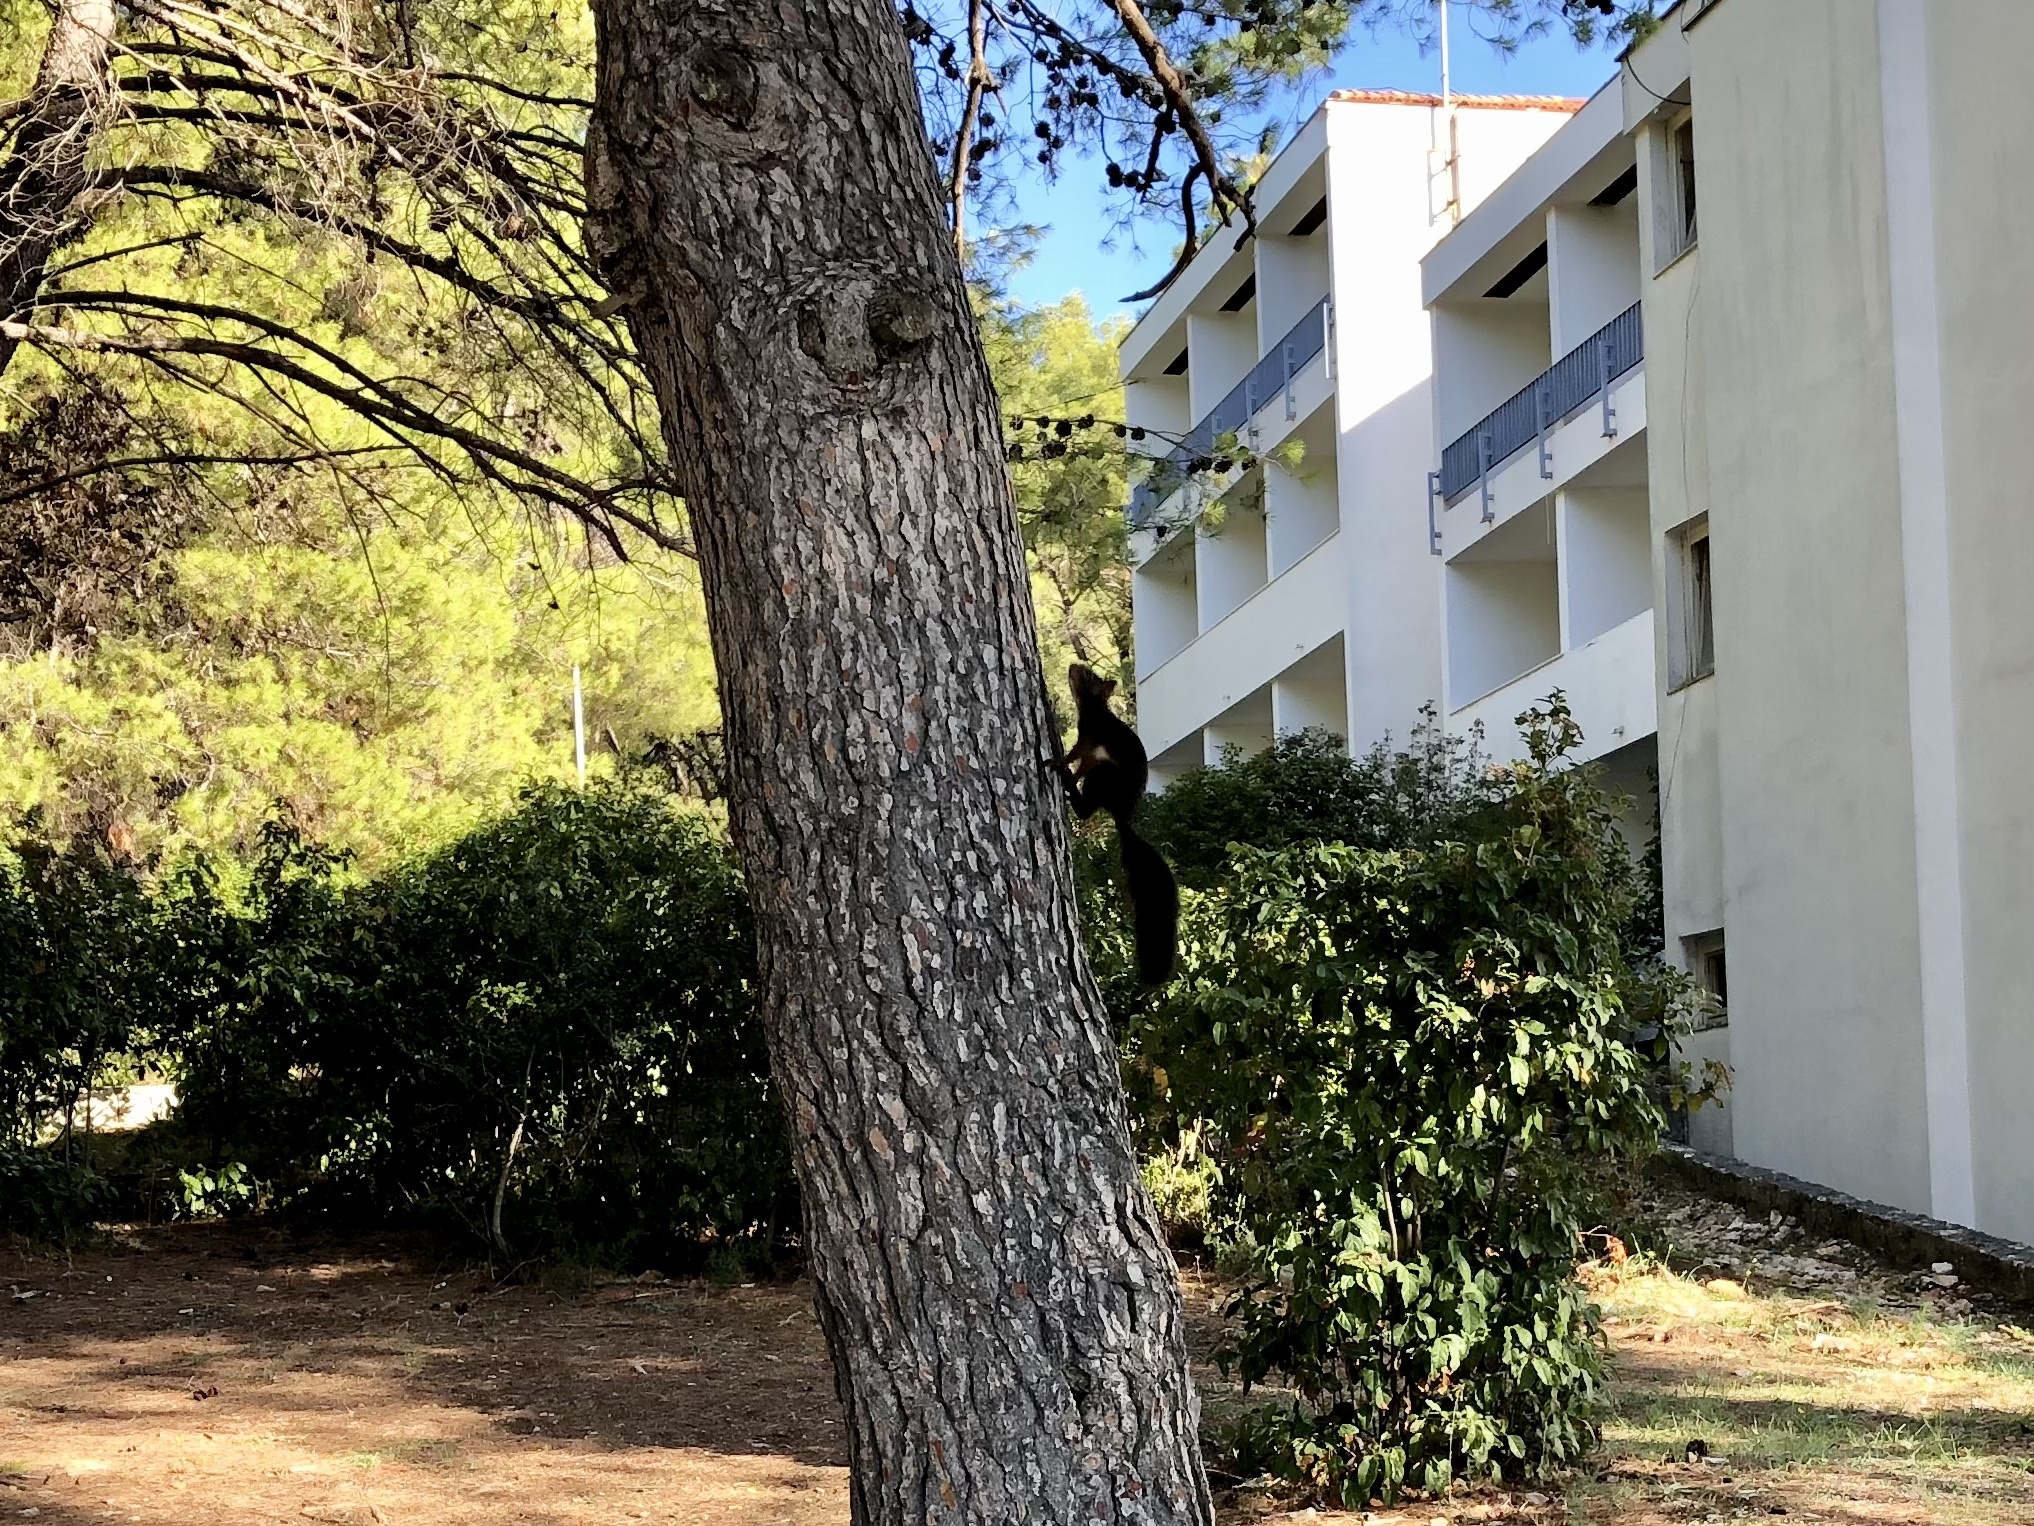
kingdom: Animalia
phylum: Chordata
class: Mammalia
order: Rodentia
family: Sciuridae
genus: Sciurus
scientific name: Sciurus vulgaris
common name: Eurasian red squirrel
